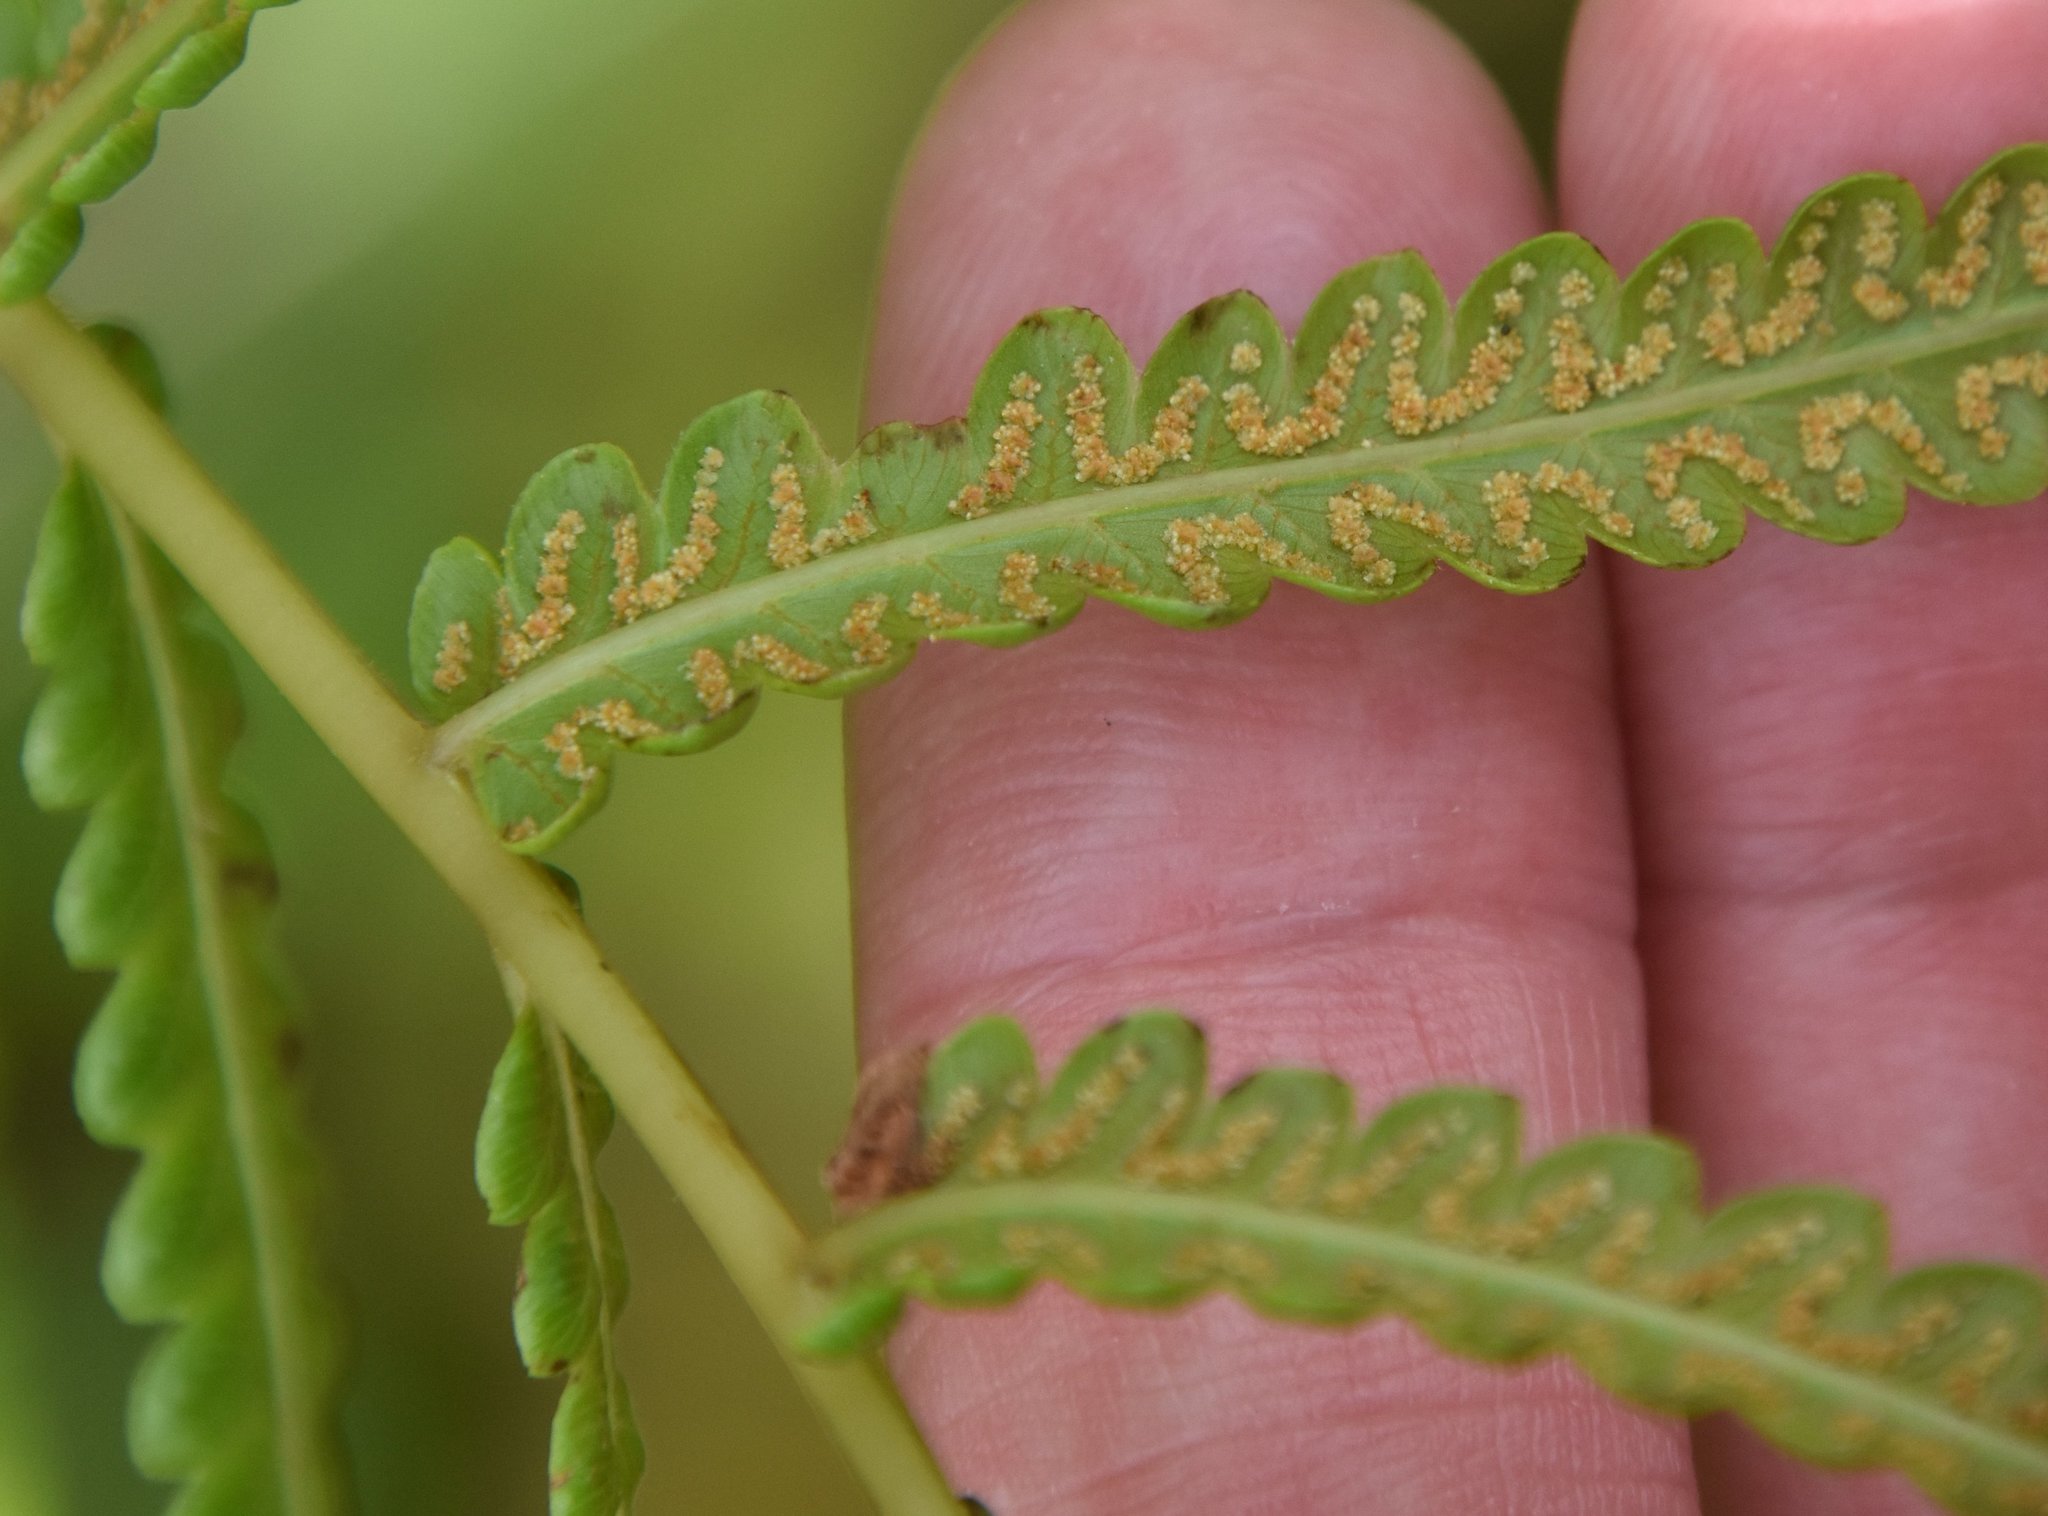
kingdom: Plantae
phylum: Tracheophyta
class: Polypodiopsida
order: Polypodiales
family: Thelypteridaceae
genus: Cyclosorus
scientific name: Cyclosorus interruptus
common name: Neke fern
